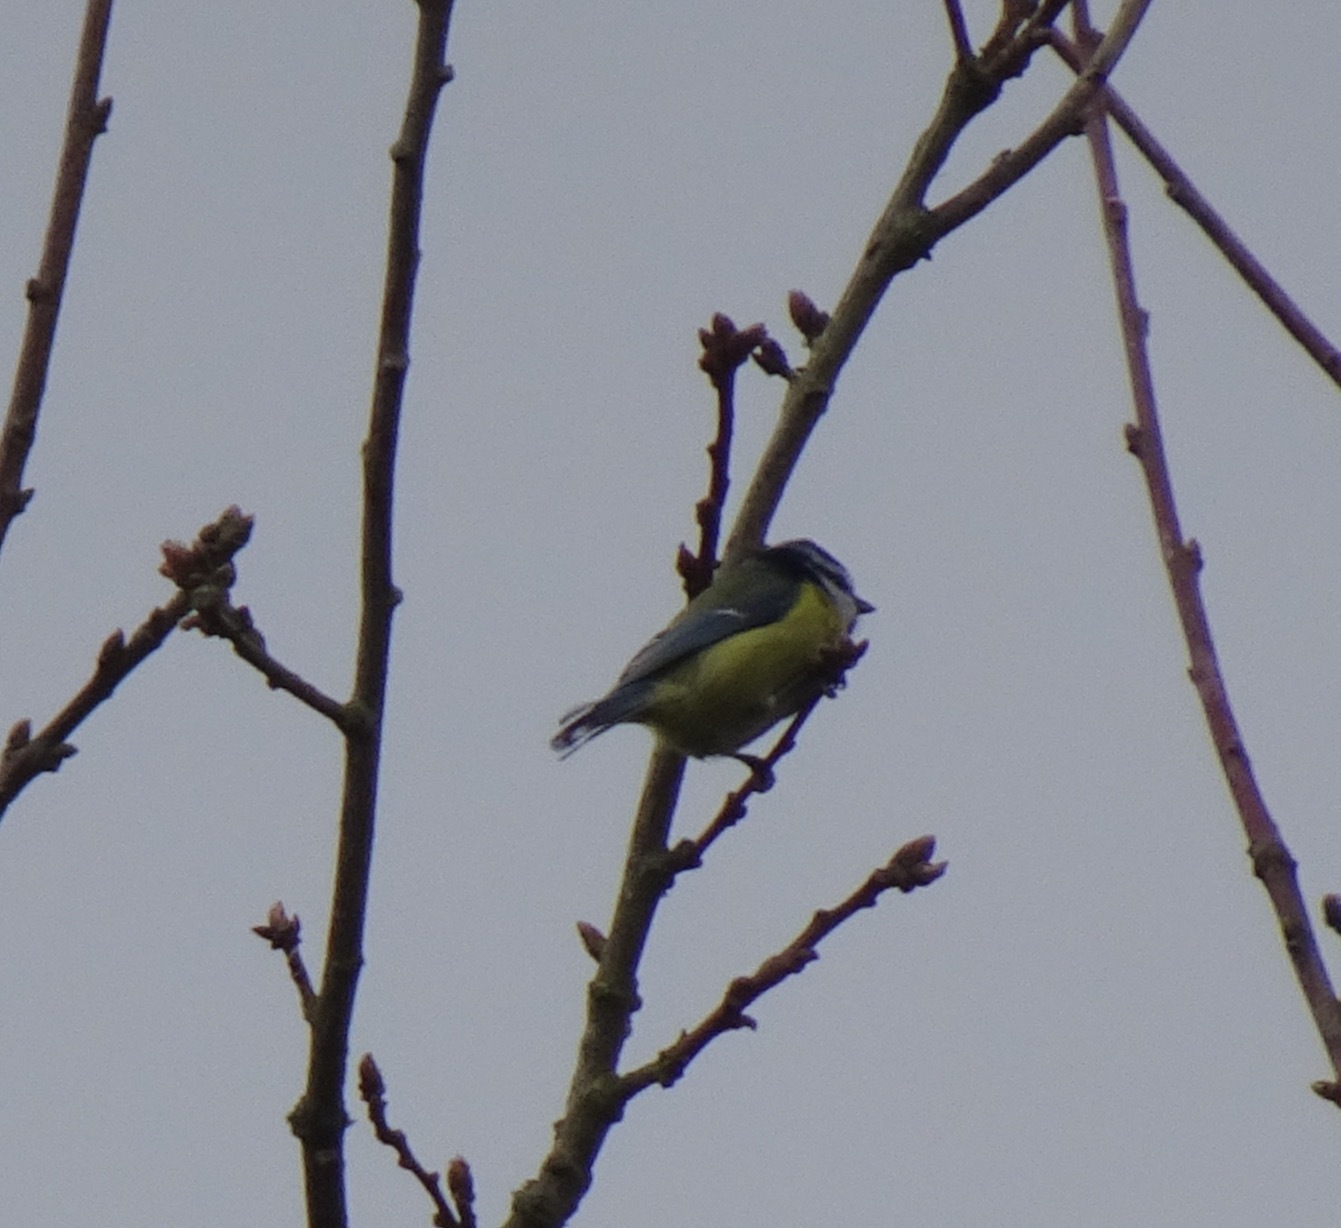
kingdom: Animalia
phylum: Chordata
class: Aves
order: Passeriformes
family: Paridae
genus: Cyanistes
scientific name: Cyanistes caeruleus
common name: Eurasian blue tit
